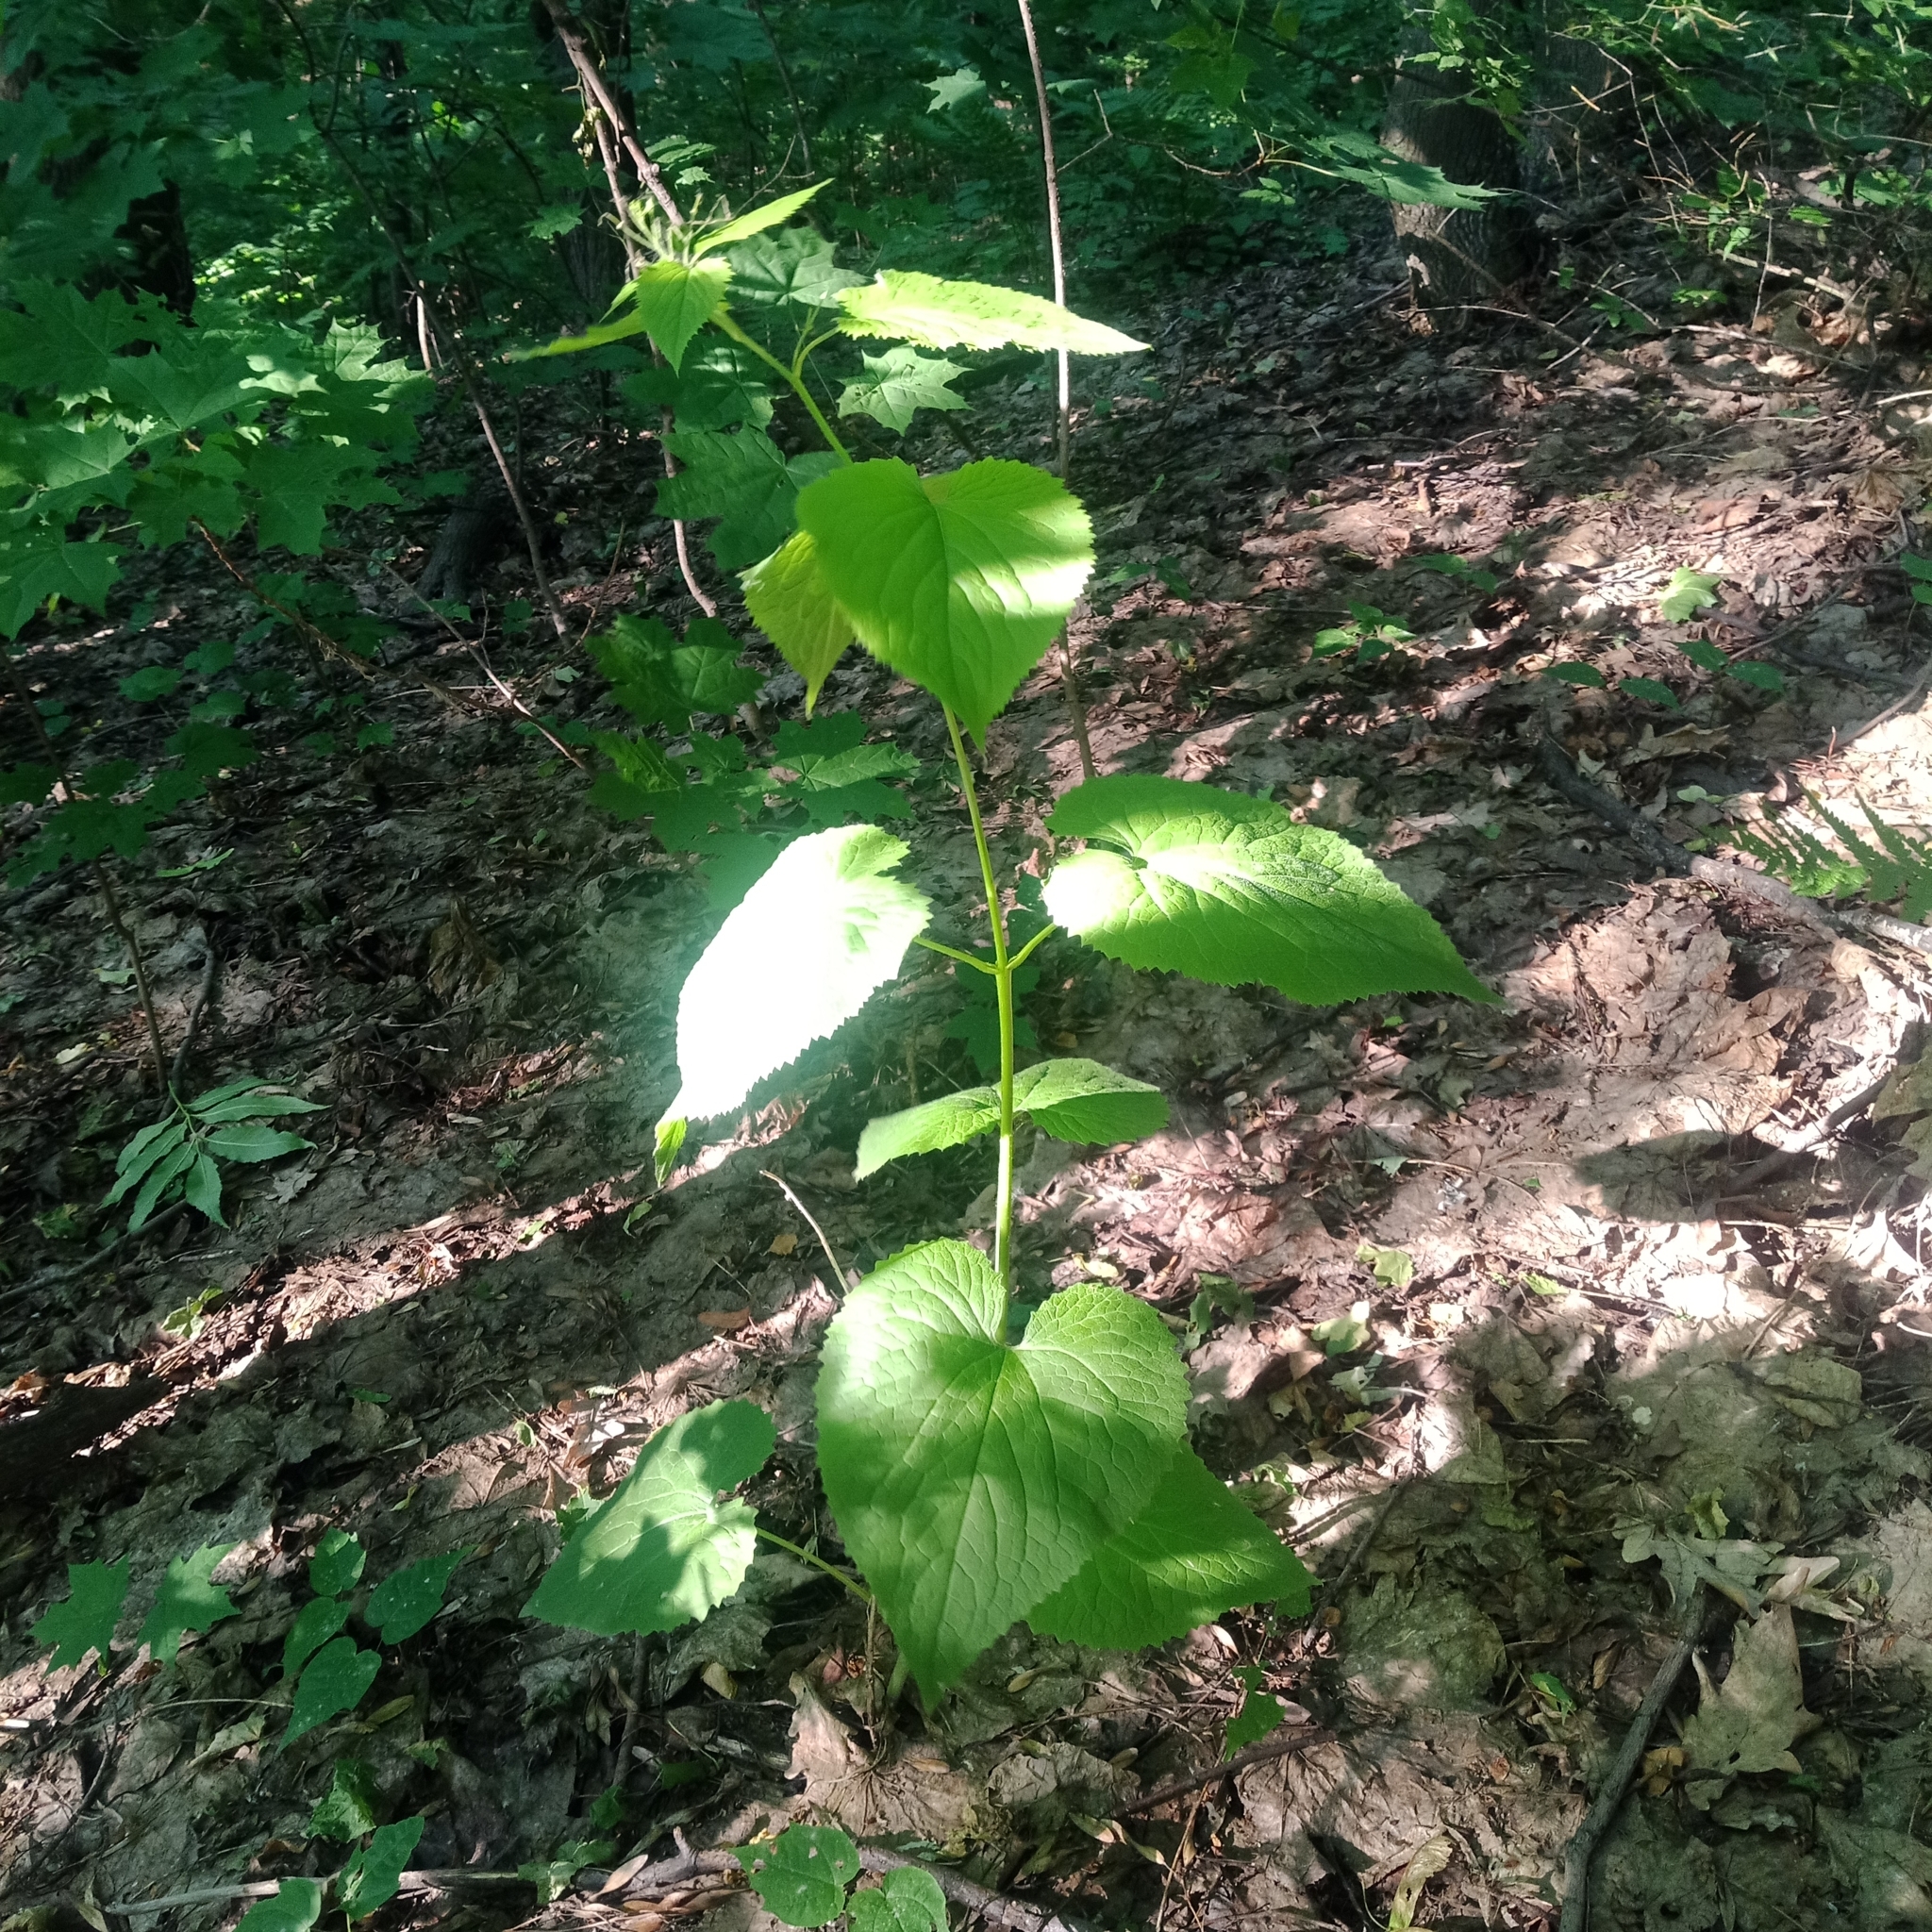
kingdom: Plantae
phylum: Tracheophyta
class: Magnoliopsida
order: Brassicales
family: Brassicaceae
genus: Lunaria
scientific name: Lunaria rediviva
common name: Perennial honesty
